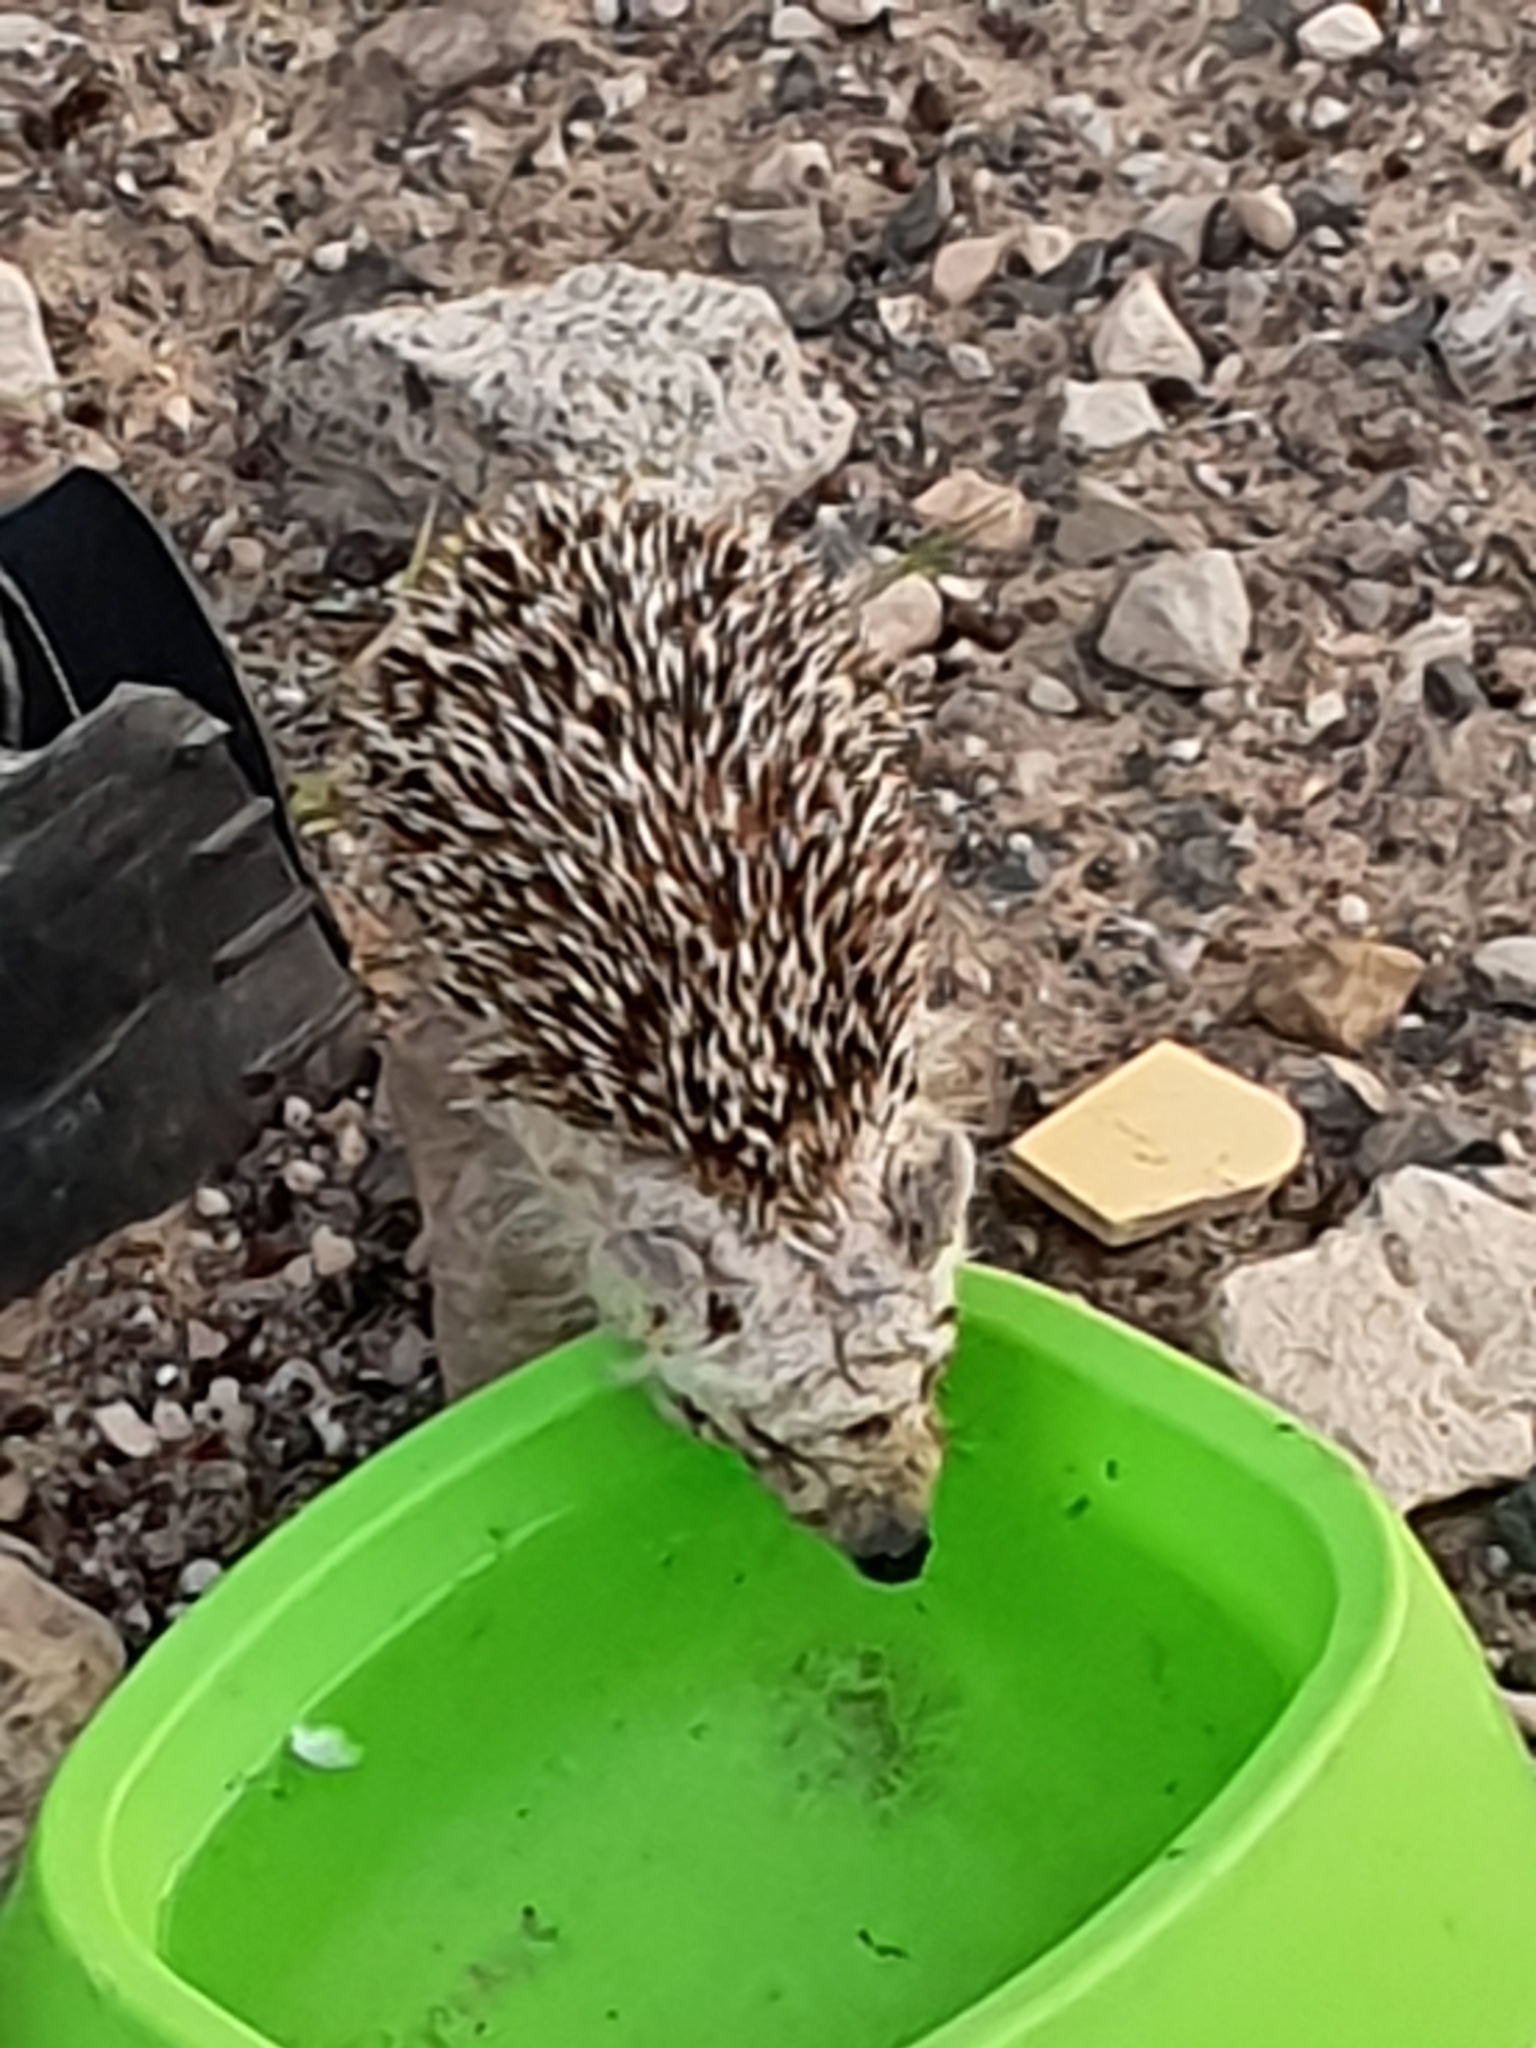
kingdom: Animalia
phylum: Chordata
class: Mammalia
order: Erinaceomorpha
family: Erinaceidae
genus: Atelerix
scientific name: Atelerix algirus
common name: North african hedgehog
